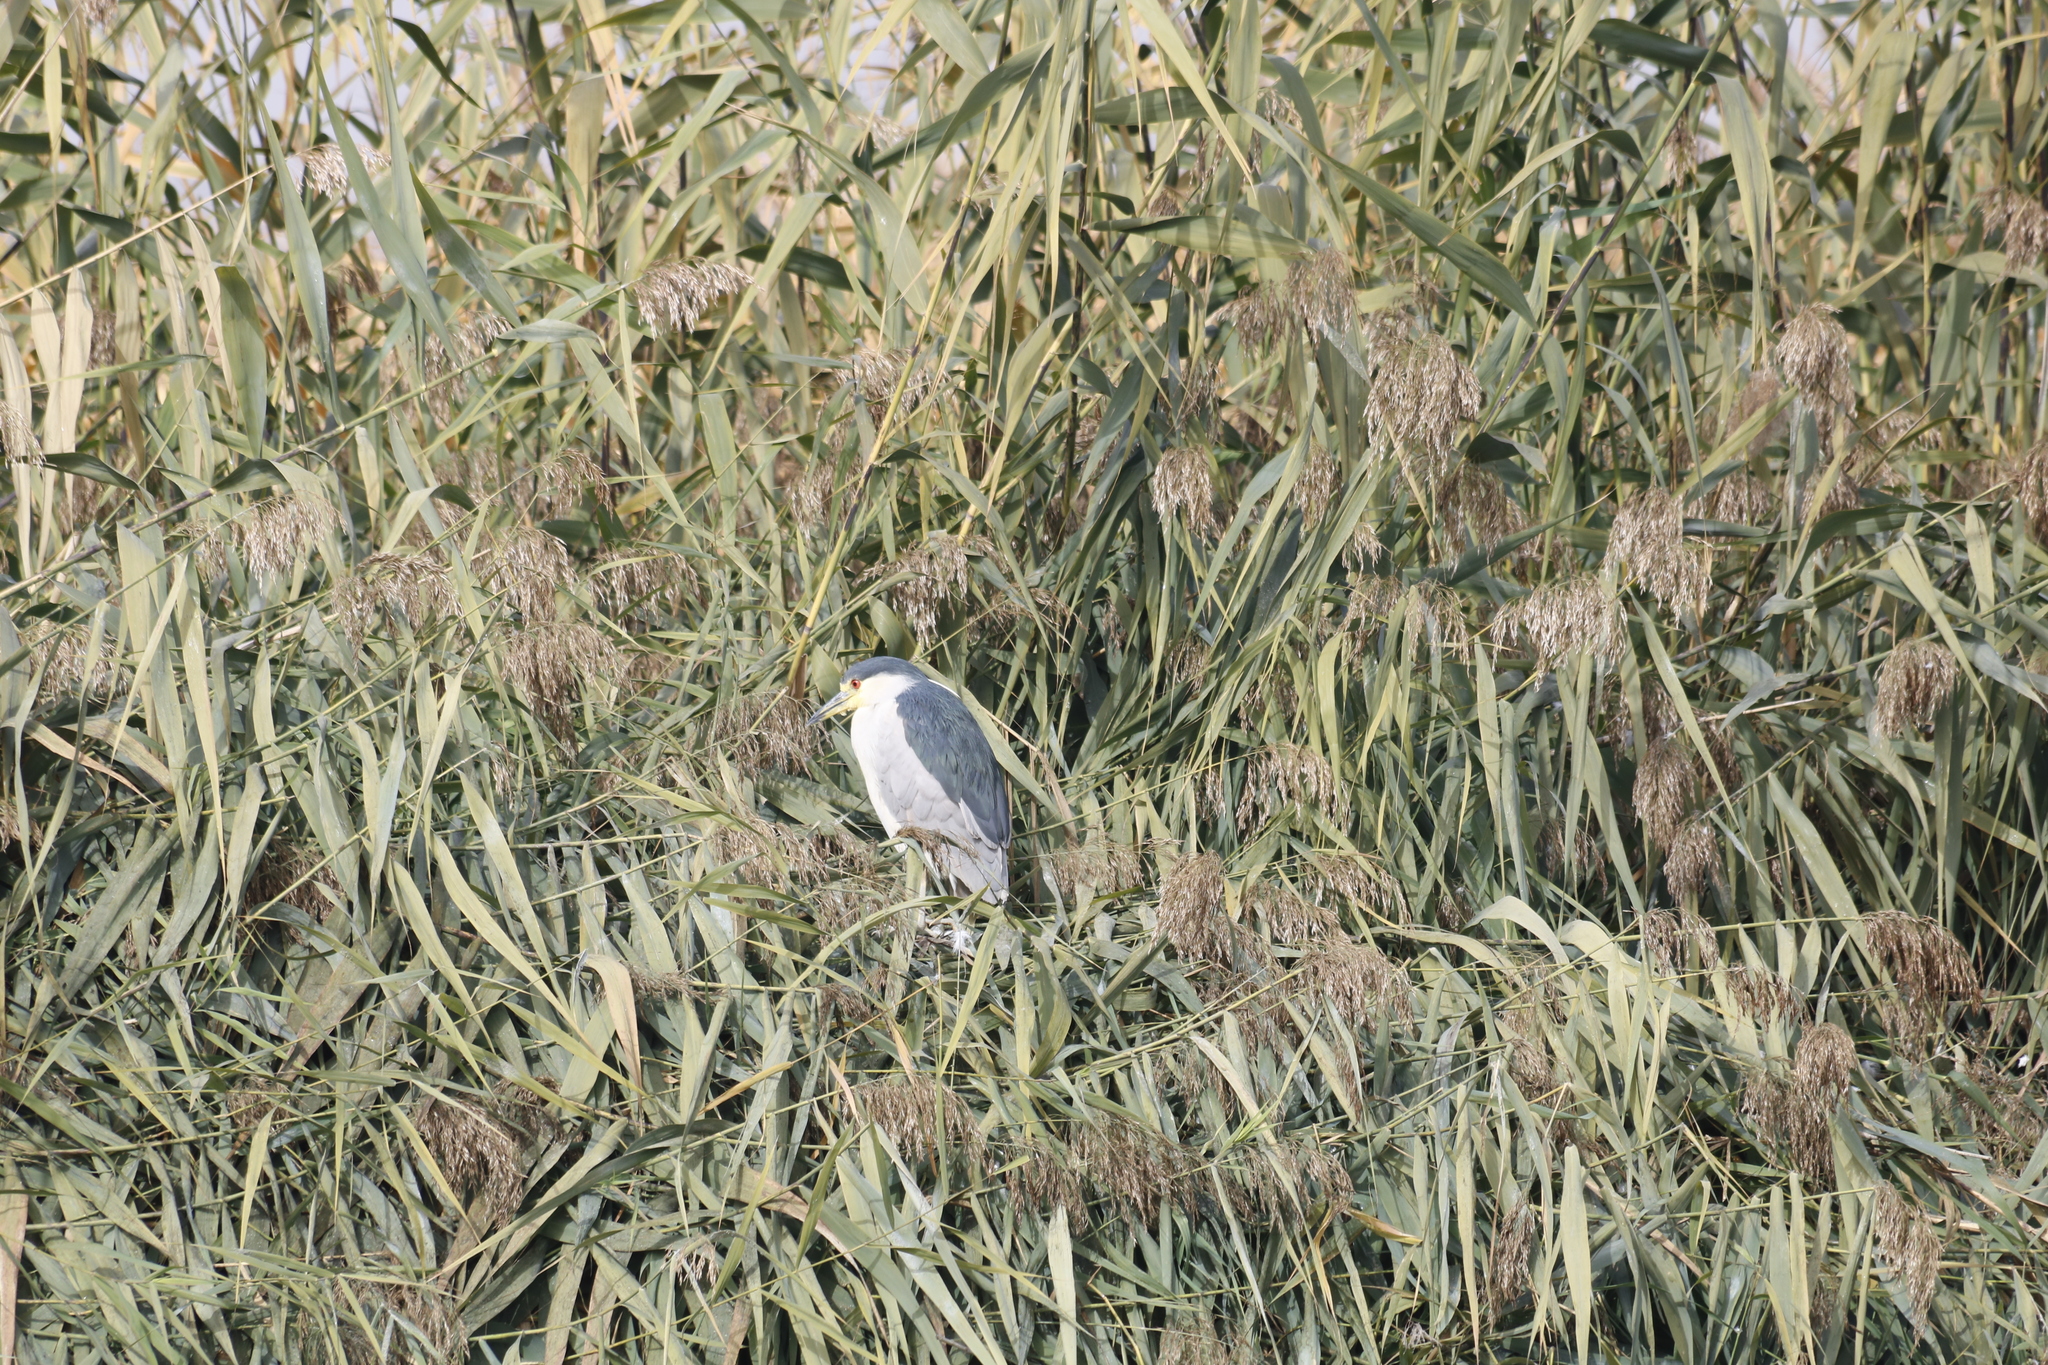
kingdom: Animalia
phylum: Chordata
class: Aves
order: Pelecaniformes
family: Ardeidae
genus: Nycticorax
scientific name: Nycticorax nycticorax
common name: Black-crowned night heron
